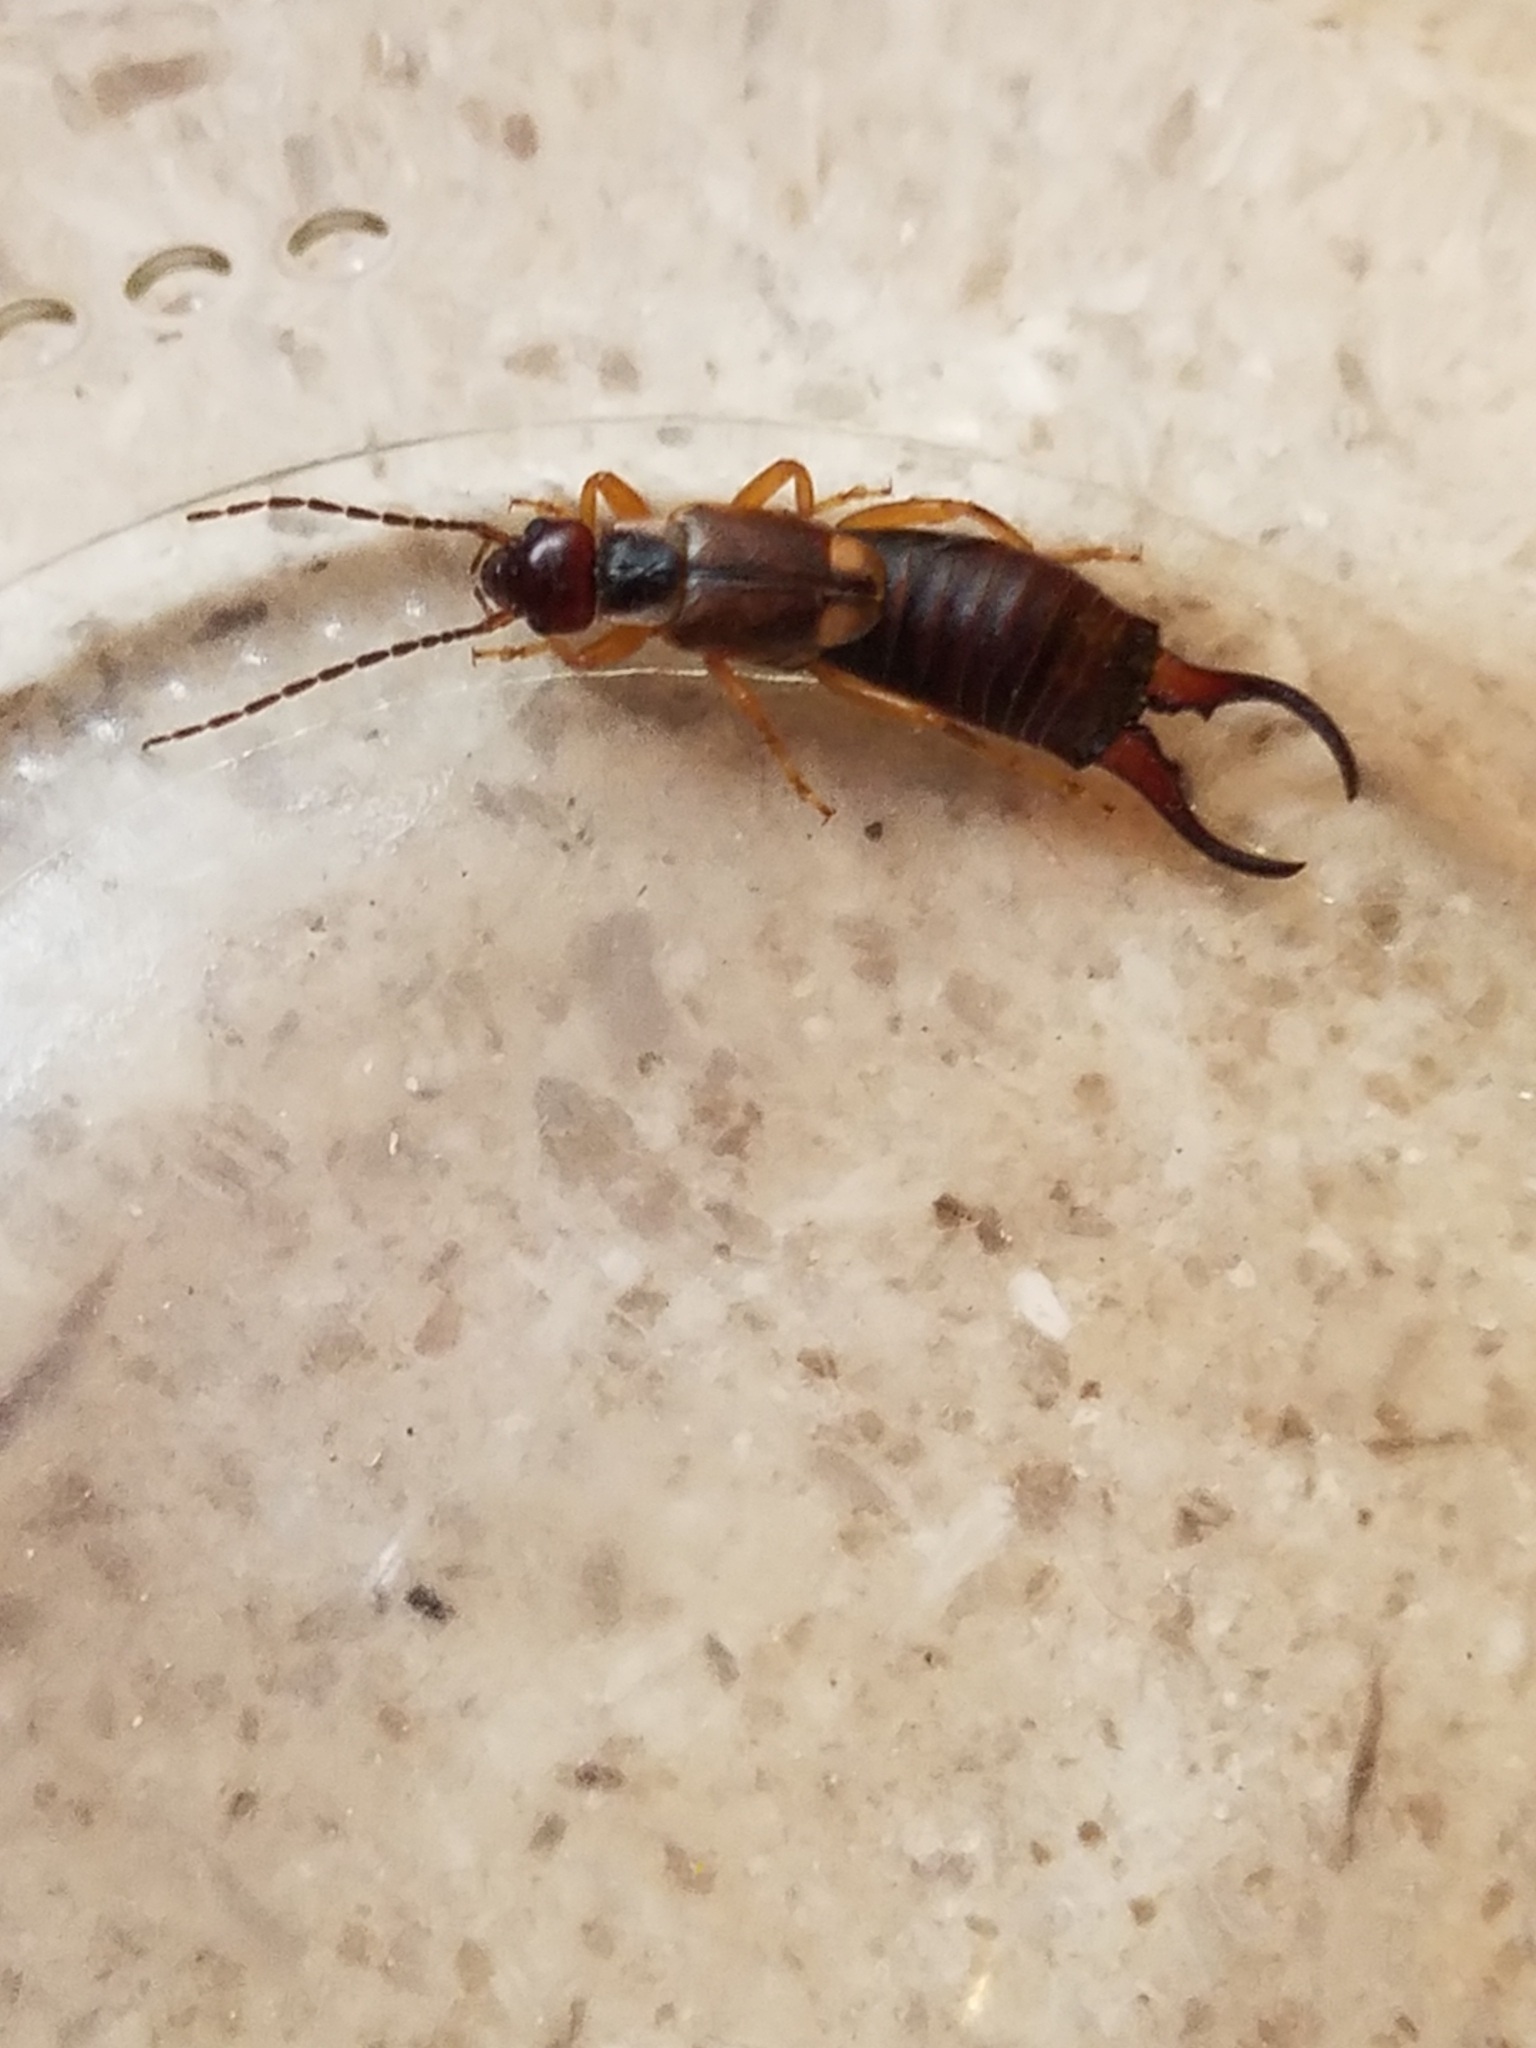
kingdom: Animalia
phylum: Arthropoda
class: Insecta
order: Dermaptera
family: Forficulidae
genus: Forficula
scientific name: Forficula
